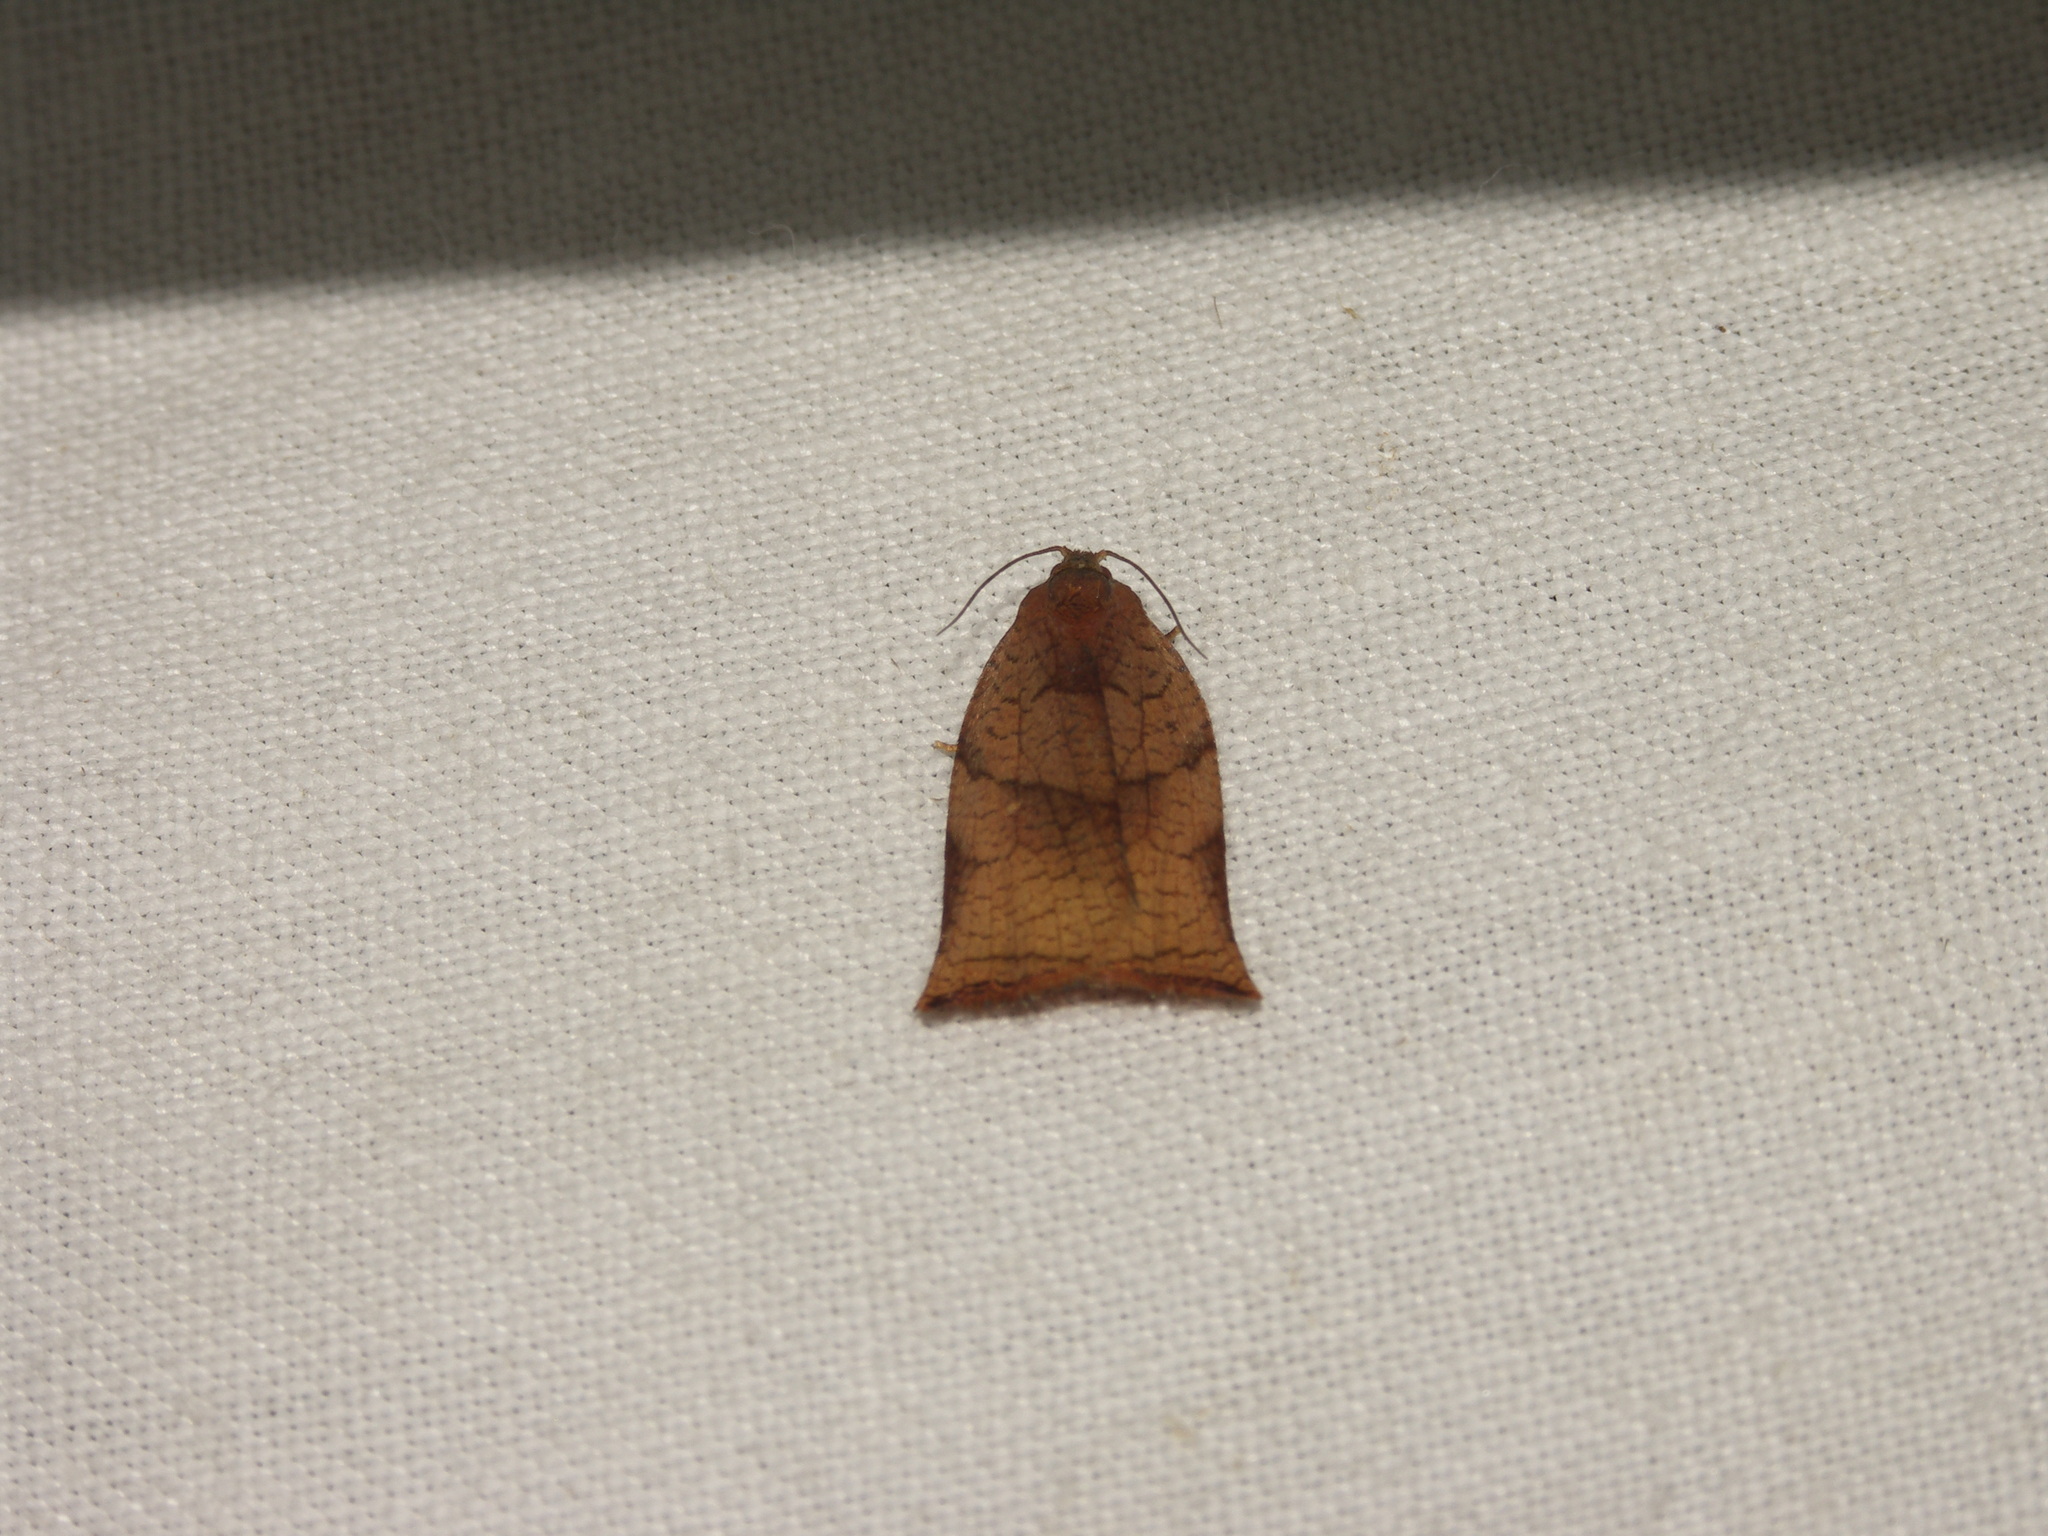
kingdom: Animalia
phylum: Arthropoda
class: Insecta
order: Lepidoptera
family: Tortricidae
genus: Archips
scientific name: Archips podana
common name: Large fruit-tree tortrix
